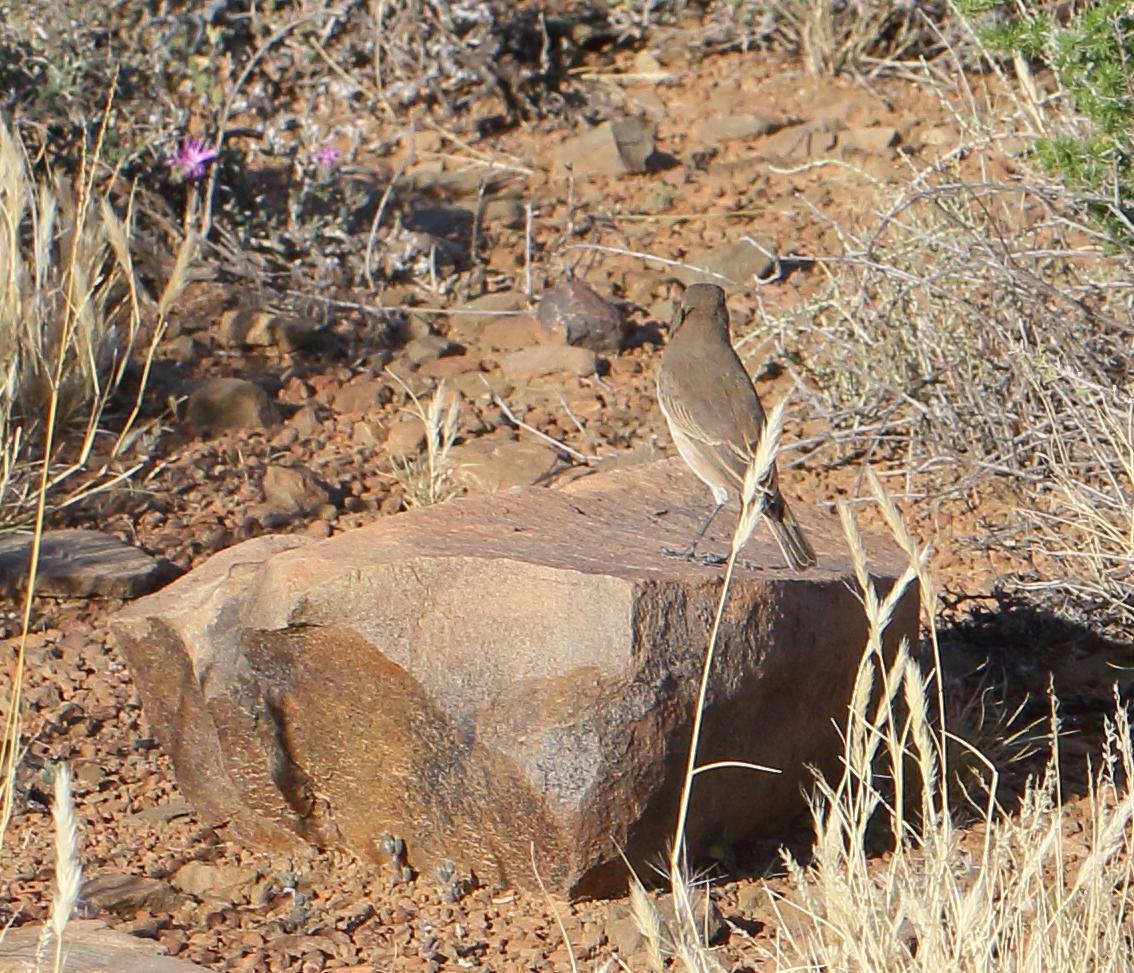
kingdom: Animalia
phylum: Chordata
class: Aves
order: Passeriformes
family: Muscicapidae
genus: Emarginata
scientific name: Emarginata sinuata
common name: Sickle-winged chat
